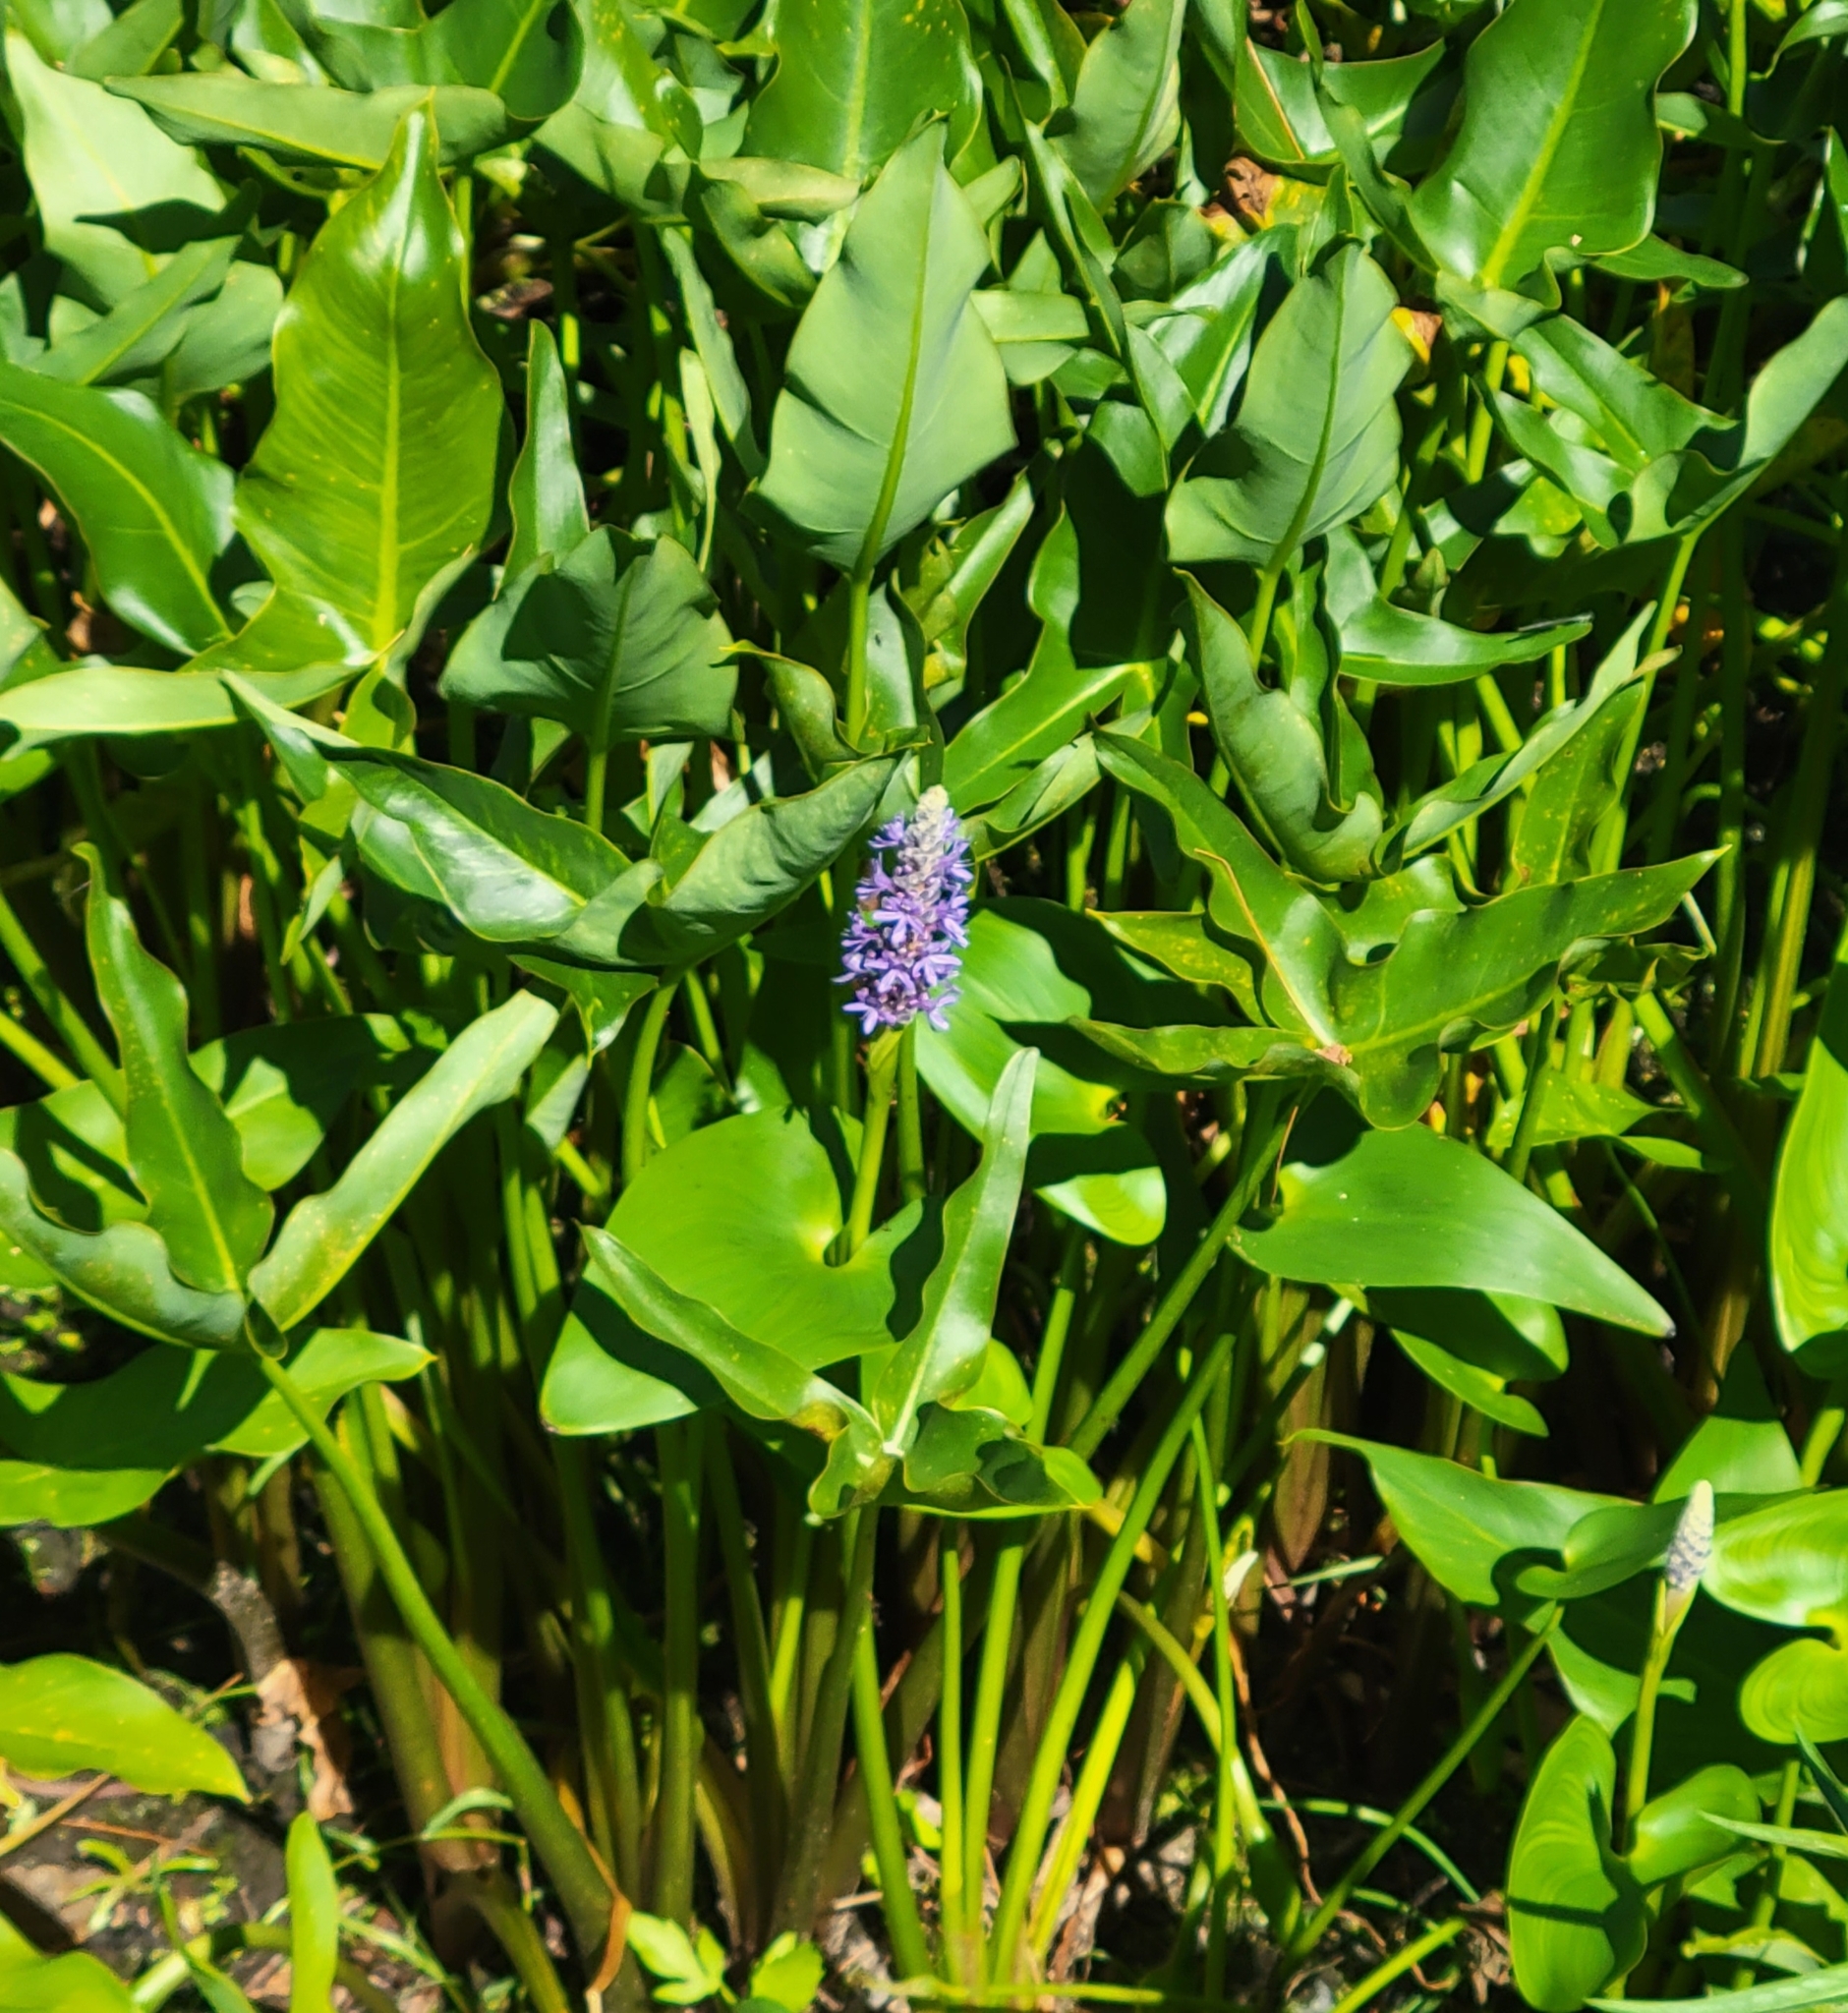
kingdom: Plantae
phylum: Tracheophyta
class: Liliopsida
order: Commelinales
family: Pontederiaceae
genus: Pontederia
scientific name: Pontederia cordata
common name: Pickerelweed
